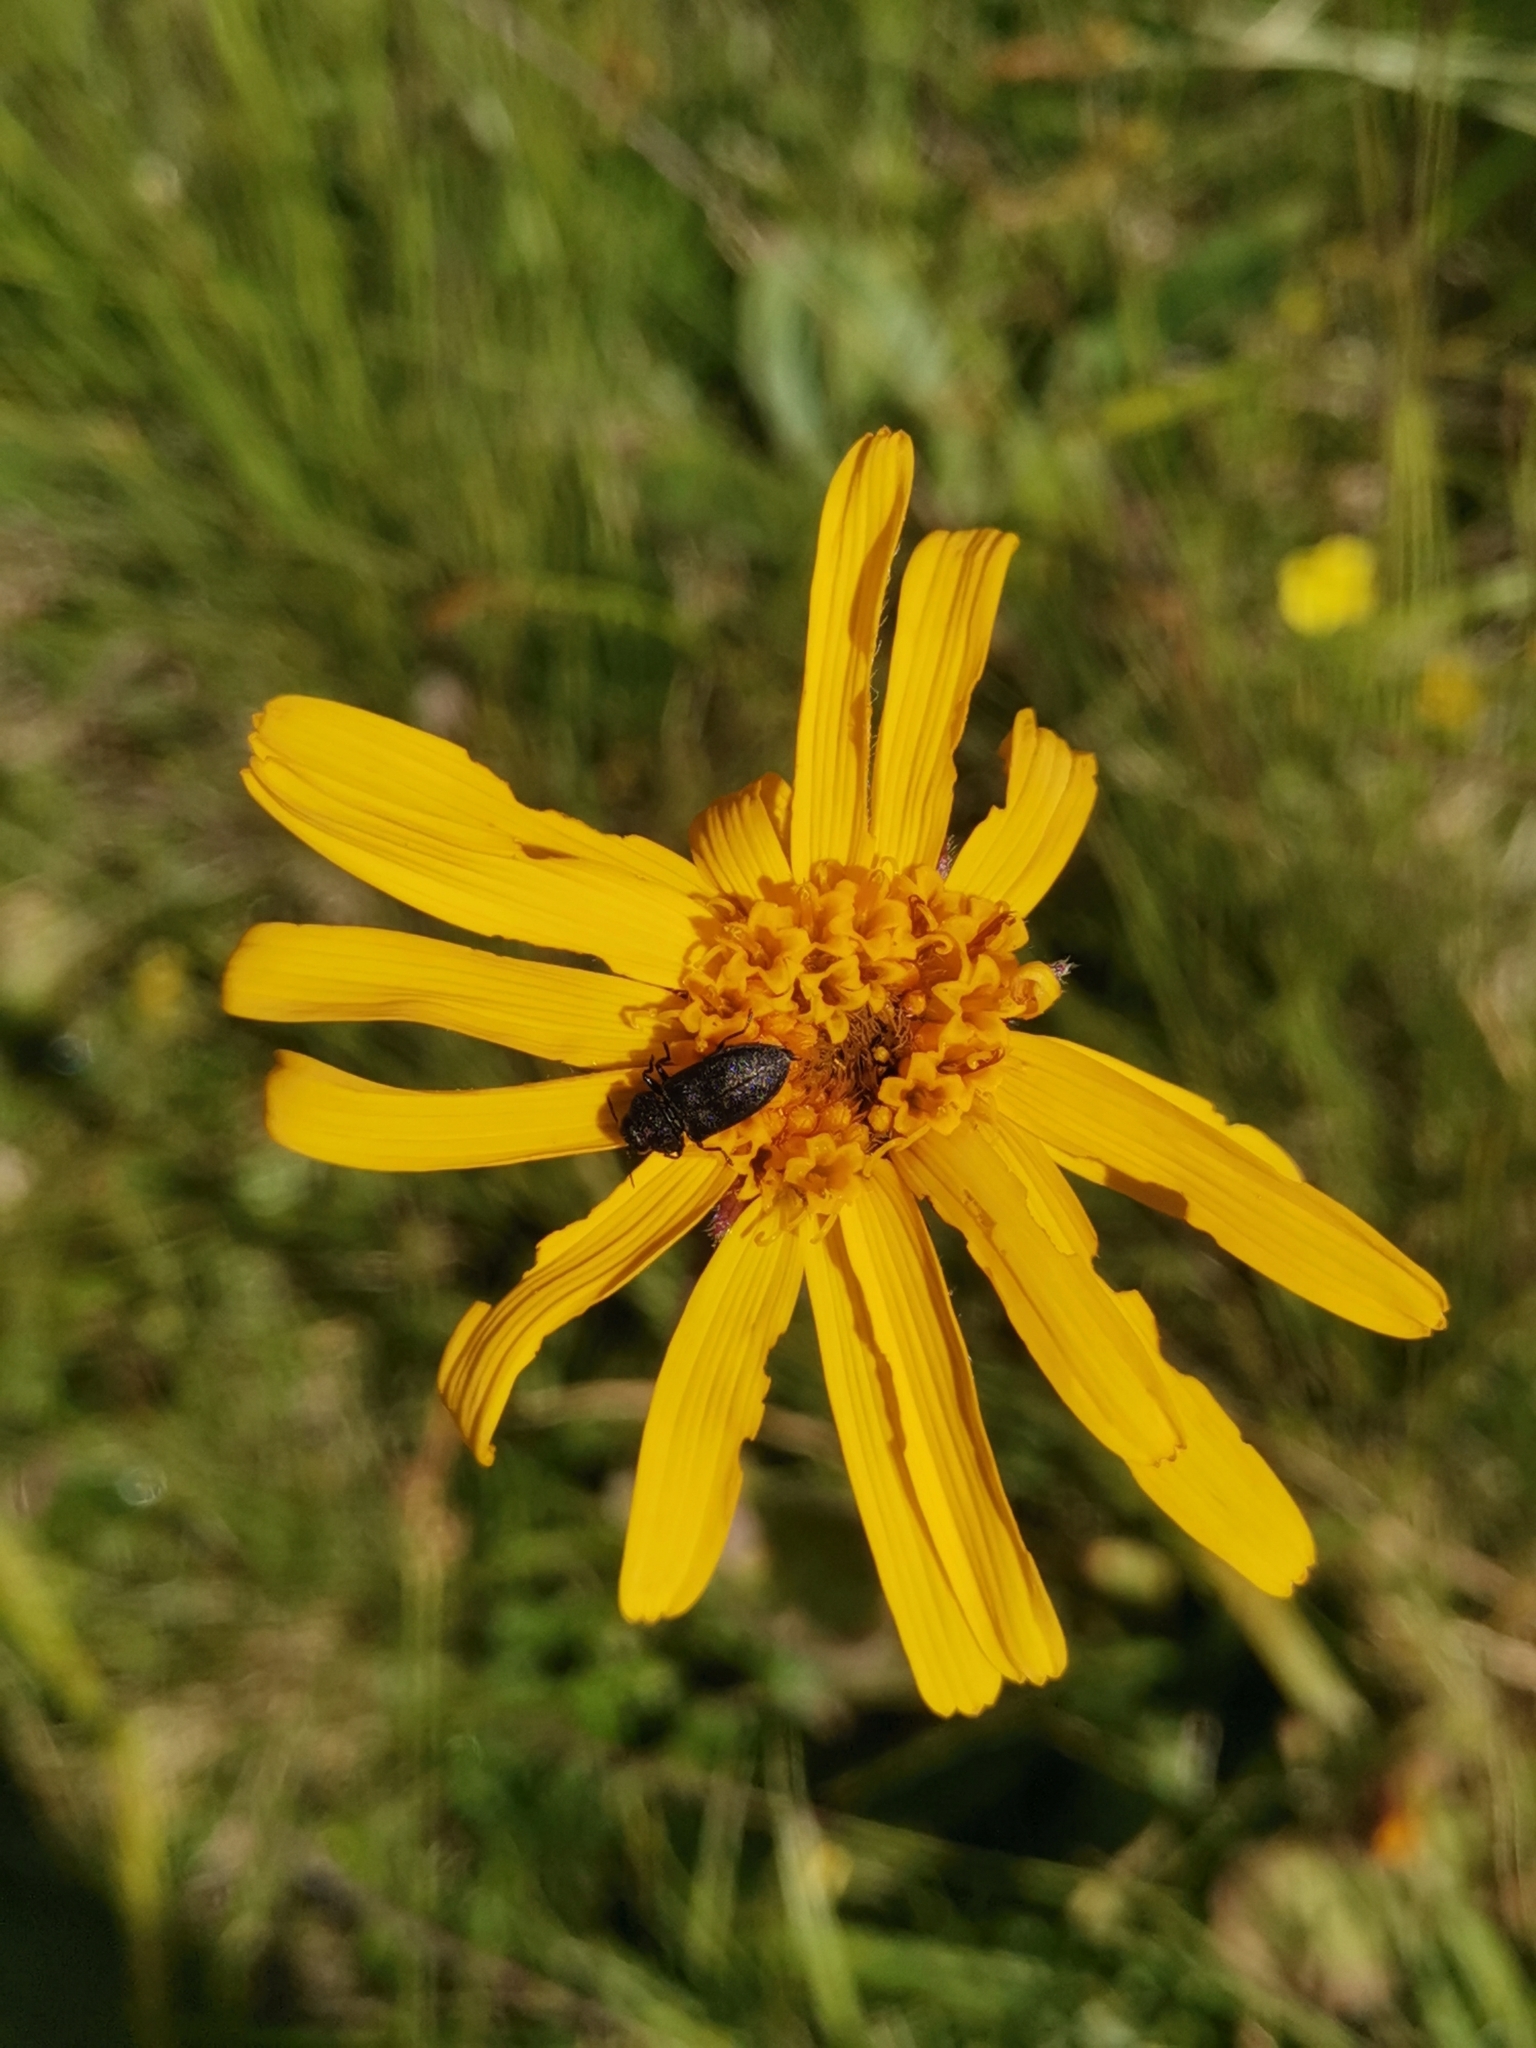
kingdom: Plantae
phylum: Tracheophyta
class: Magnoliopsida
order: Asterales
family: Asteraceae
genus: Arnica
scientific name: Arnica montana
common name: Leopard's bane
